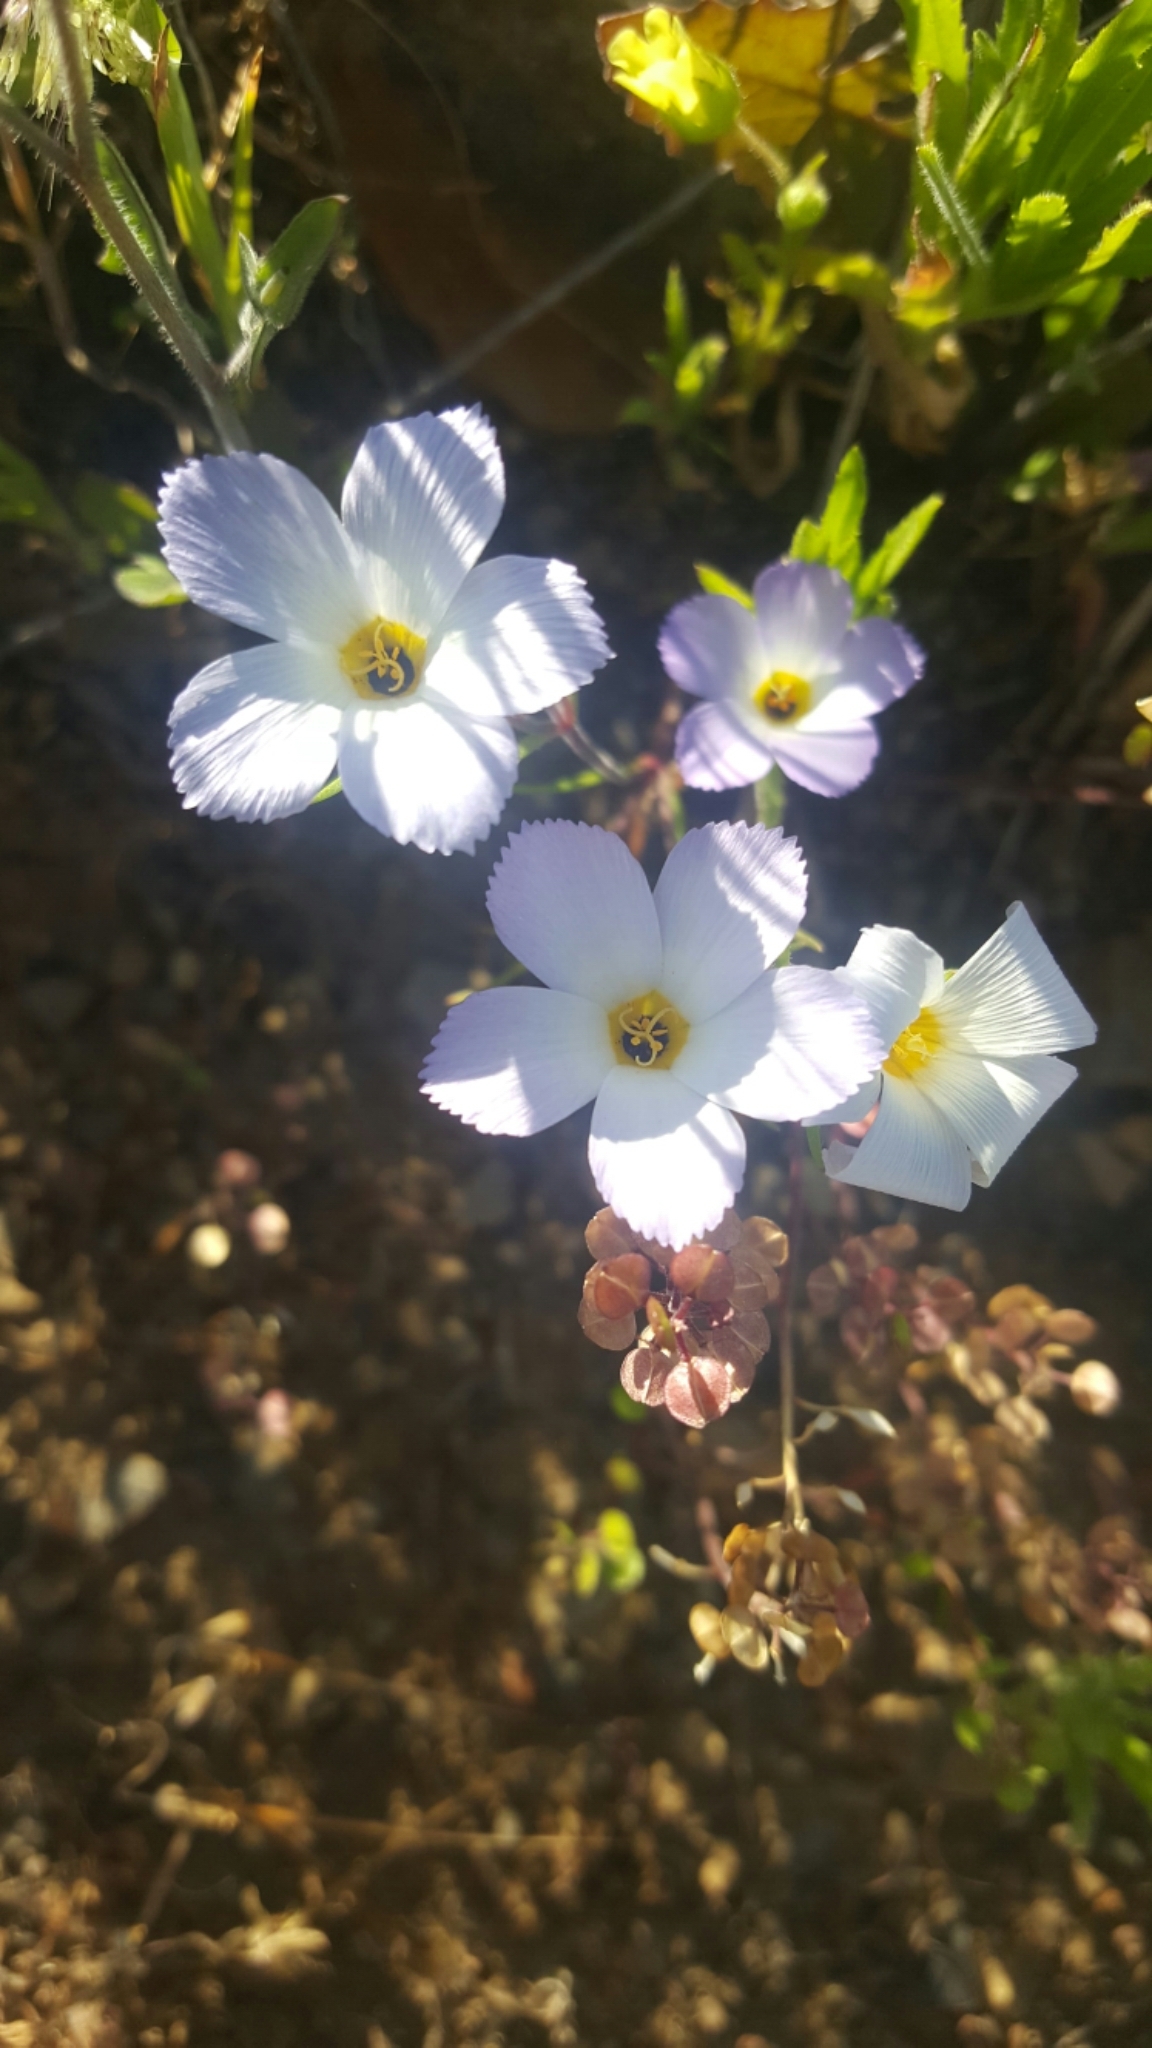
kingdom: Plantae
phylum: Tracheophyta
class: Magnoliopsida
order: Ericales
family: Polemoniaceae
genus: Linanthus
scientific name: Linanthus dianthiflorus
